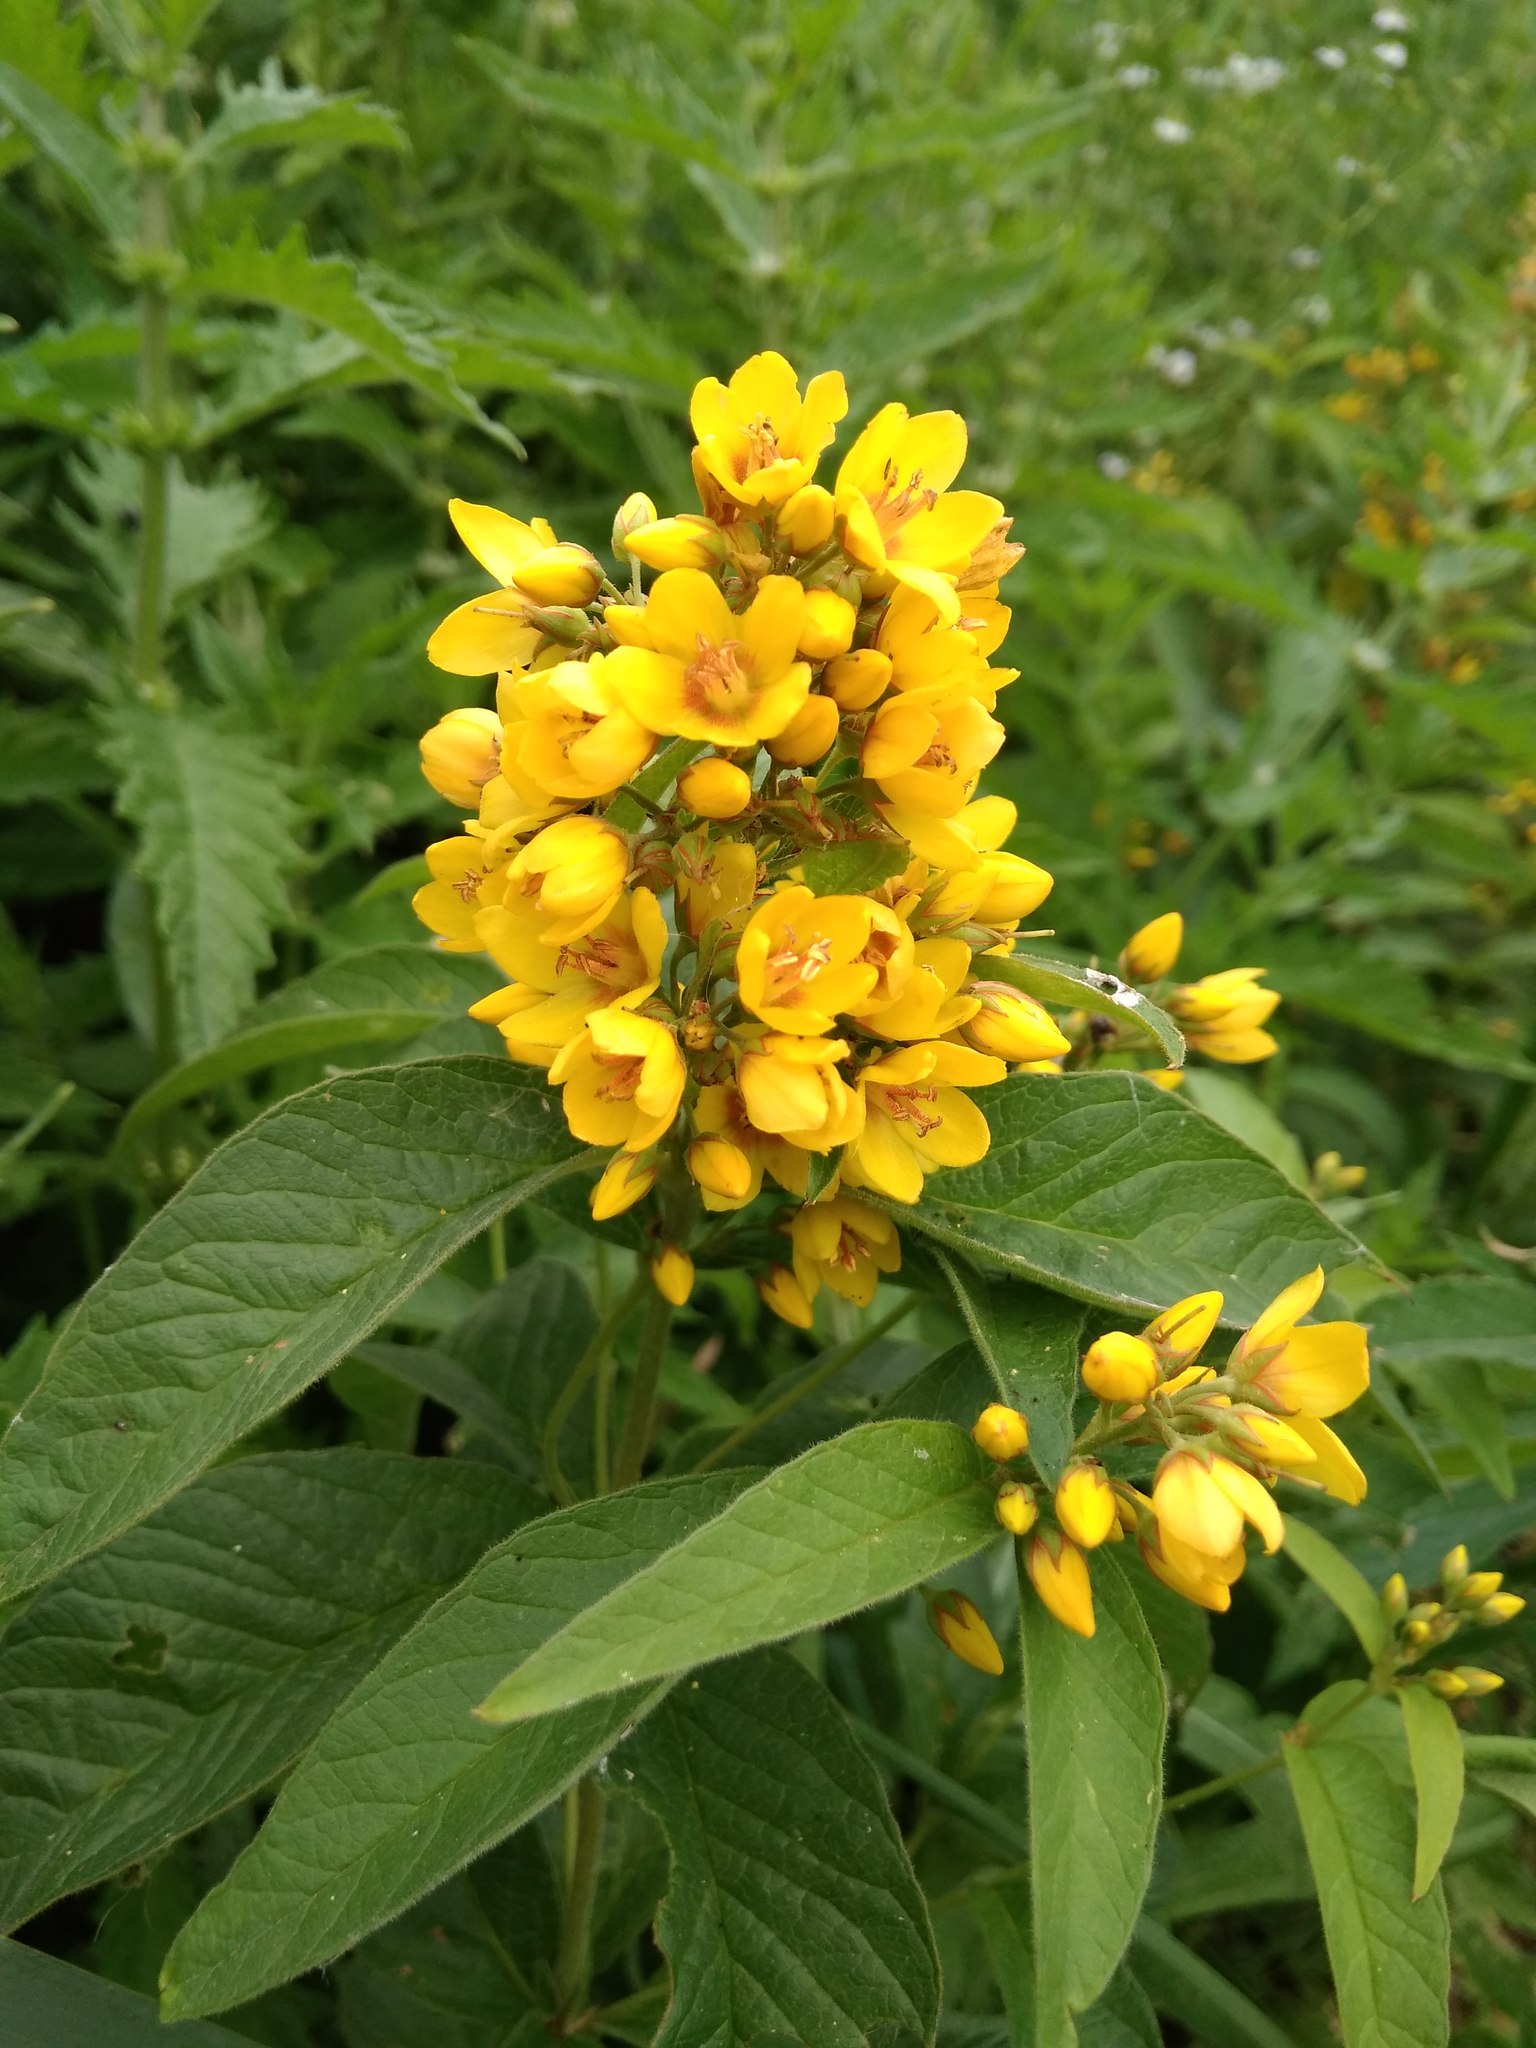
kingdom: Plantae
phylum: Tracheophyta
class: Magnoliopsida
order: Ericales
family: Primulaceae
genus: Lysimachia
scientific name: Lysimachia vulgaris
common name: Yellow loosestrife
